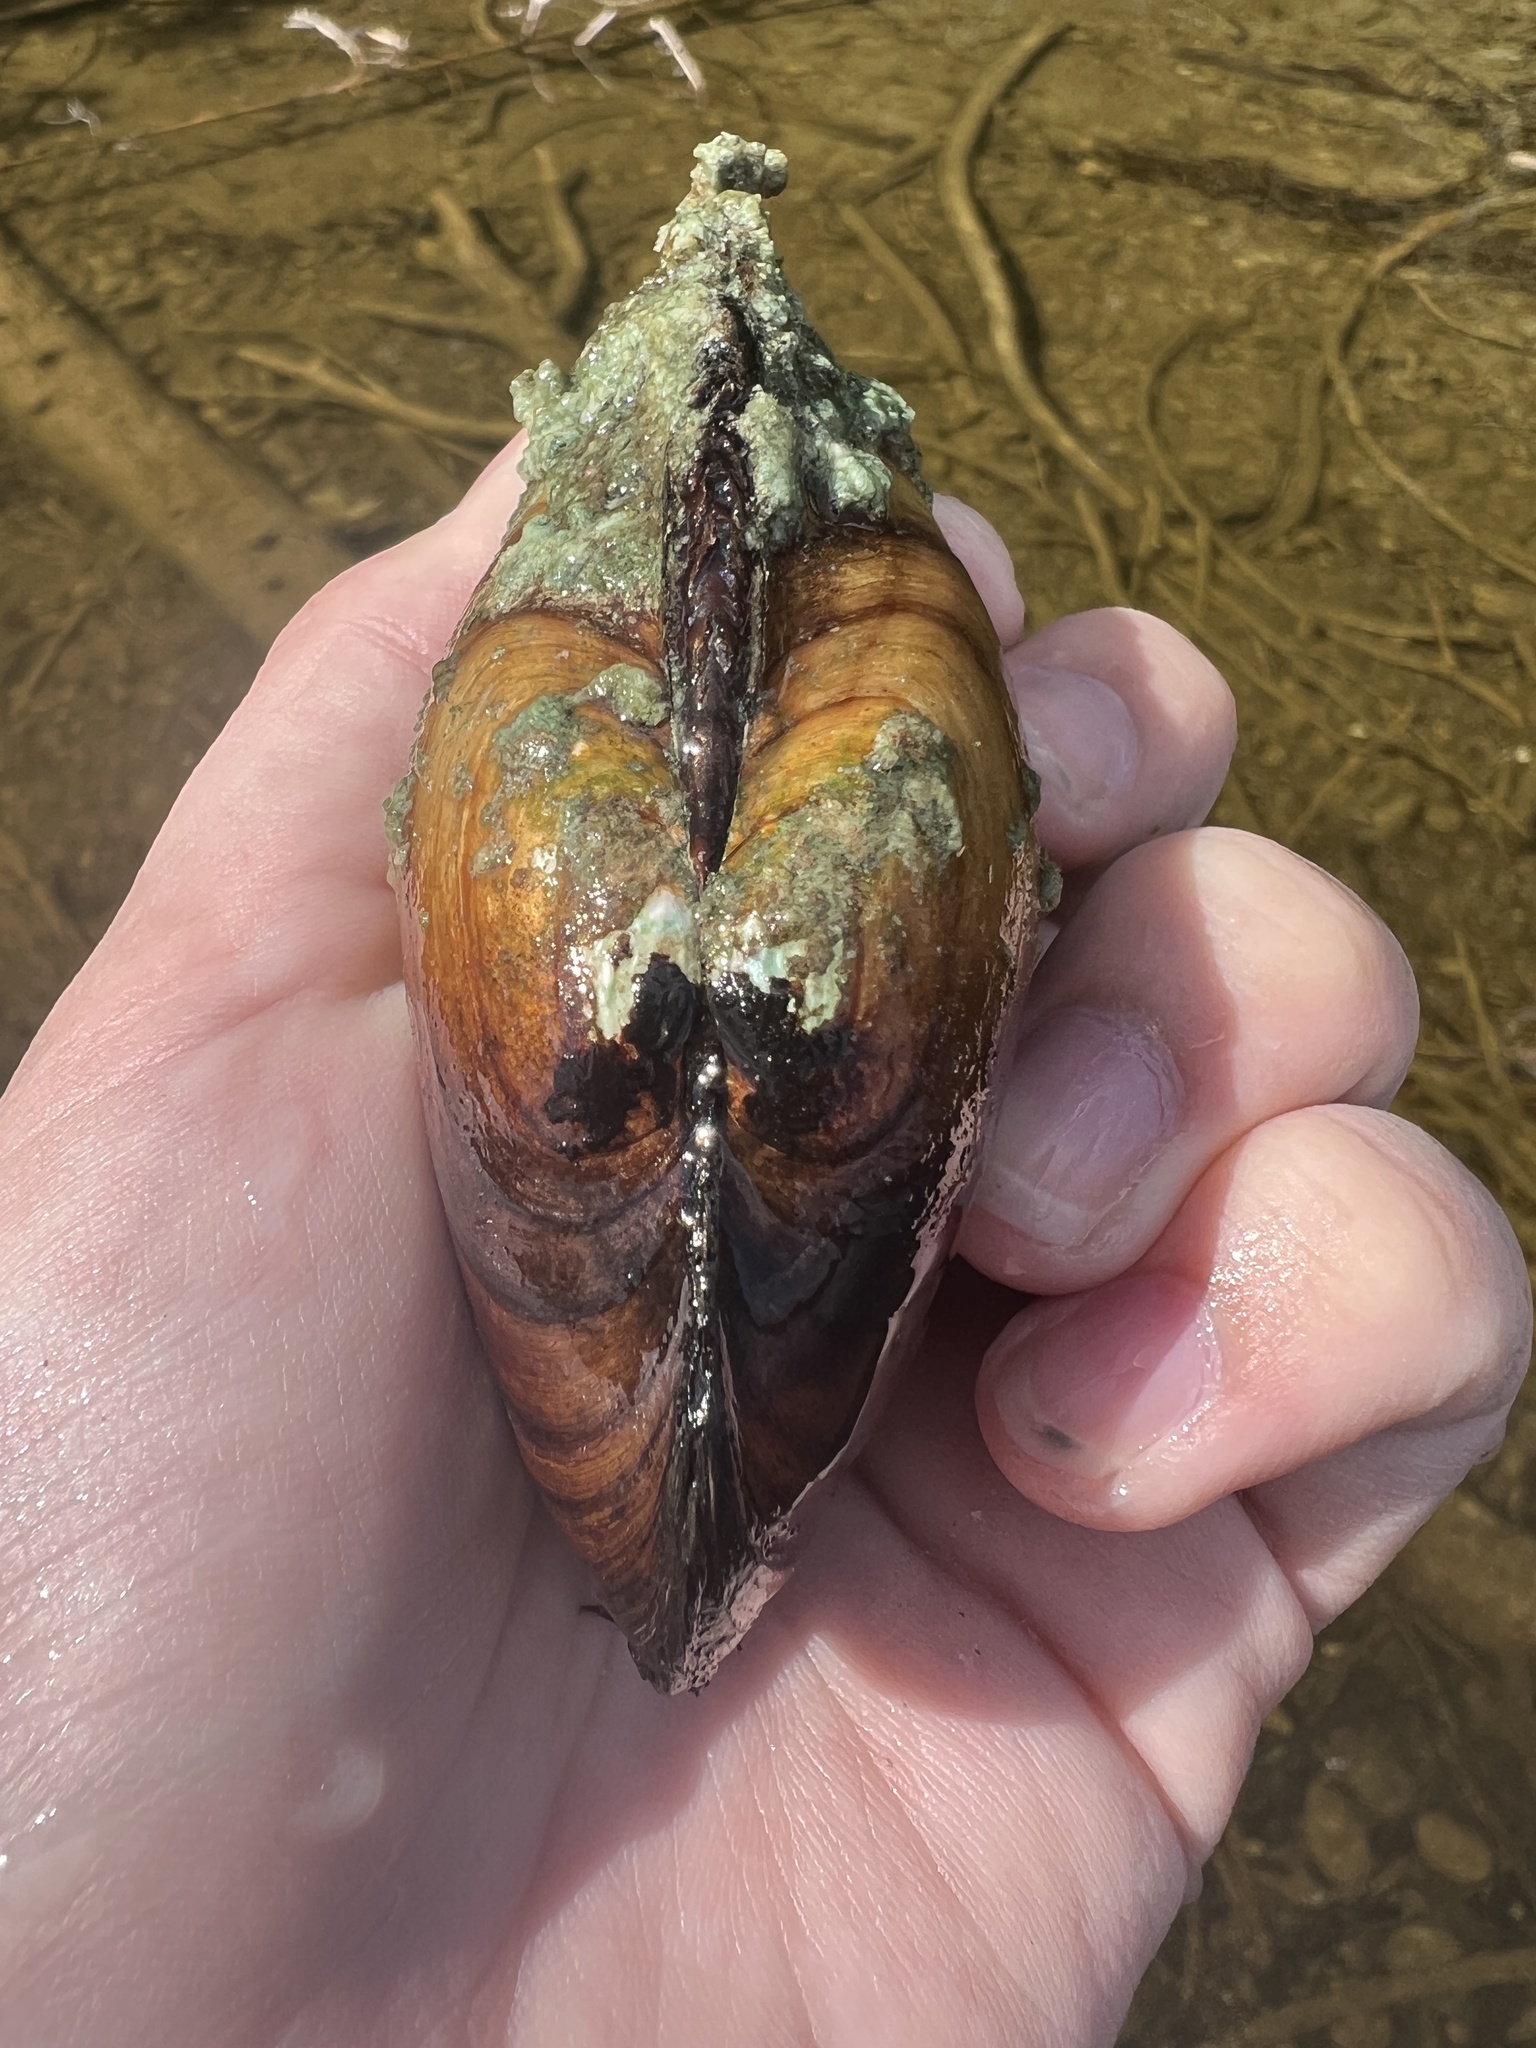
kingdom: Animalia
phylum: Mollusca
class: Bivalvia
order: Unionida
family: Unionidae
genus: Lampsilis
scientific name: Lampsilis siliquoidea
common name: Fatmucket
